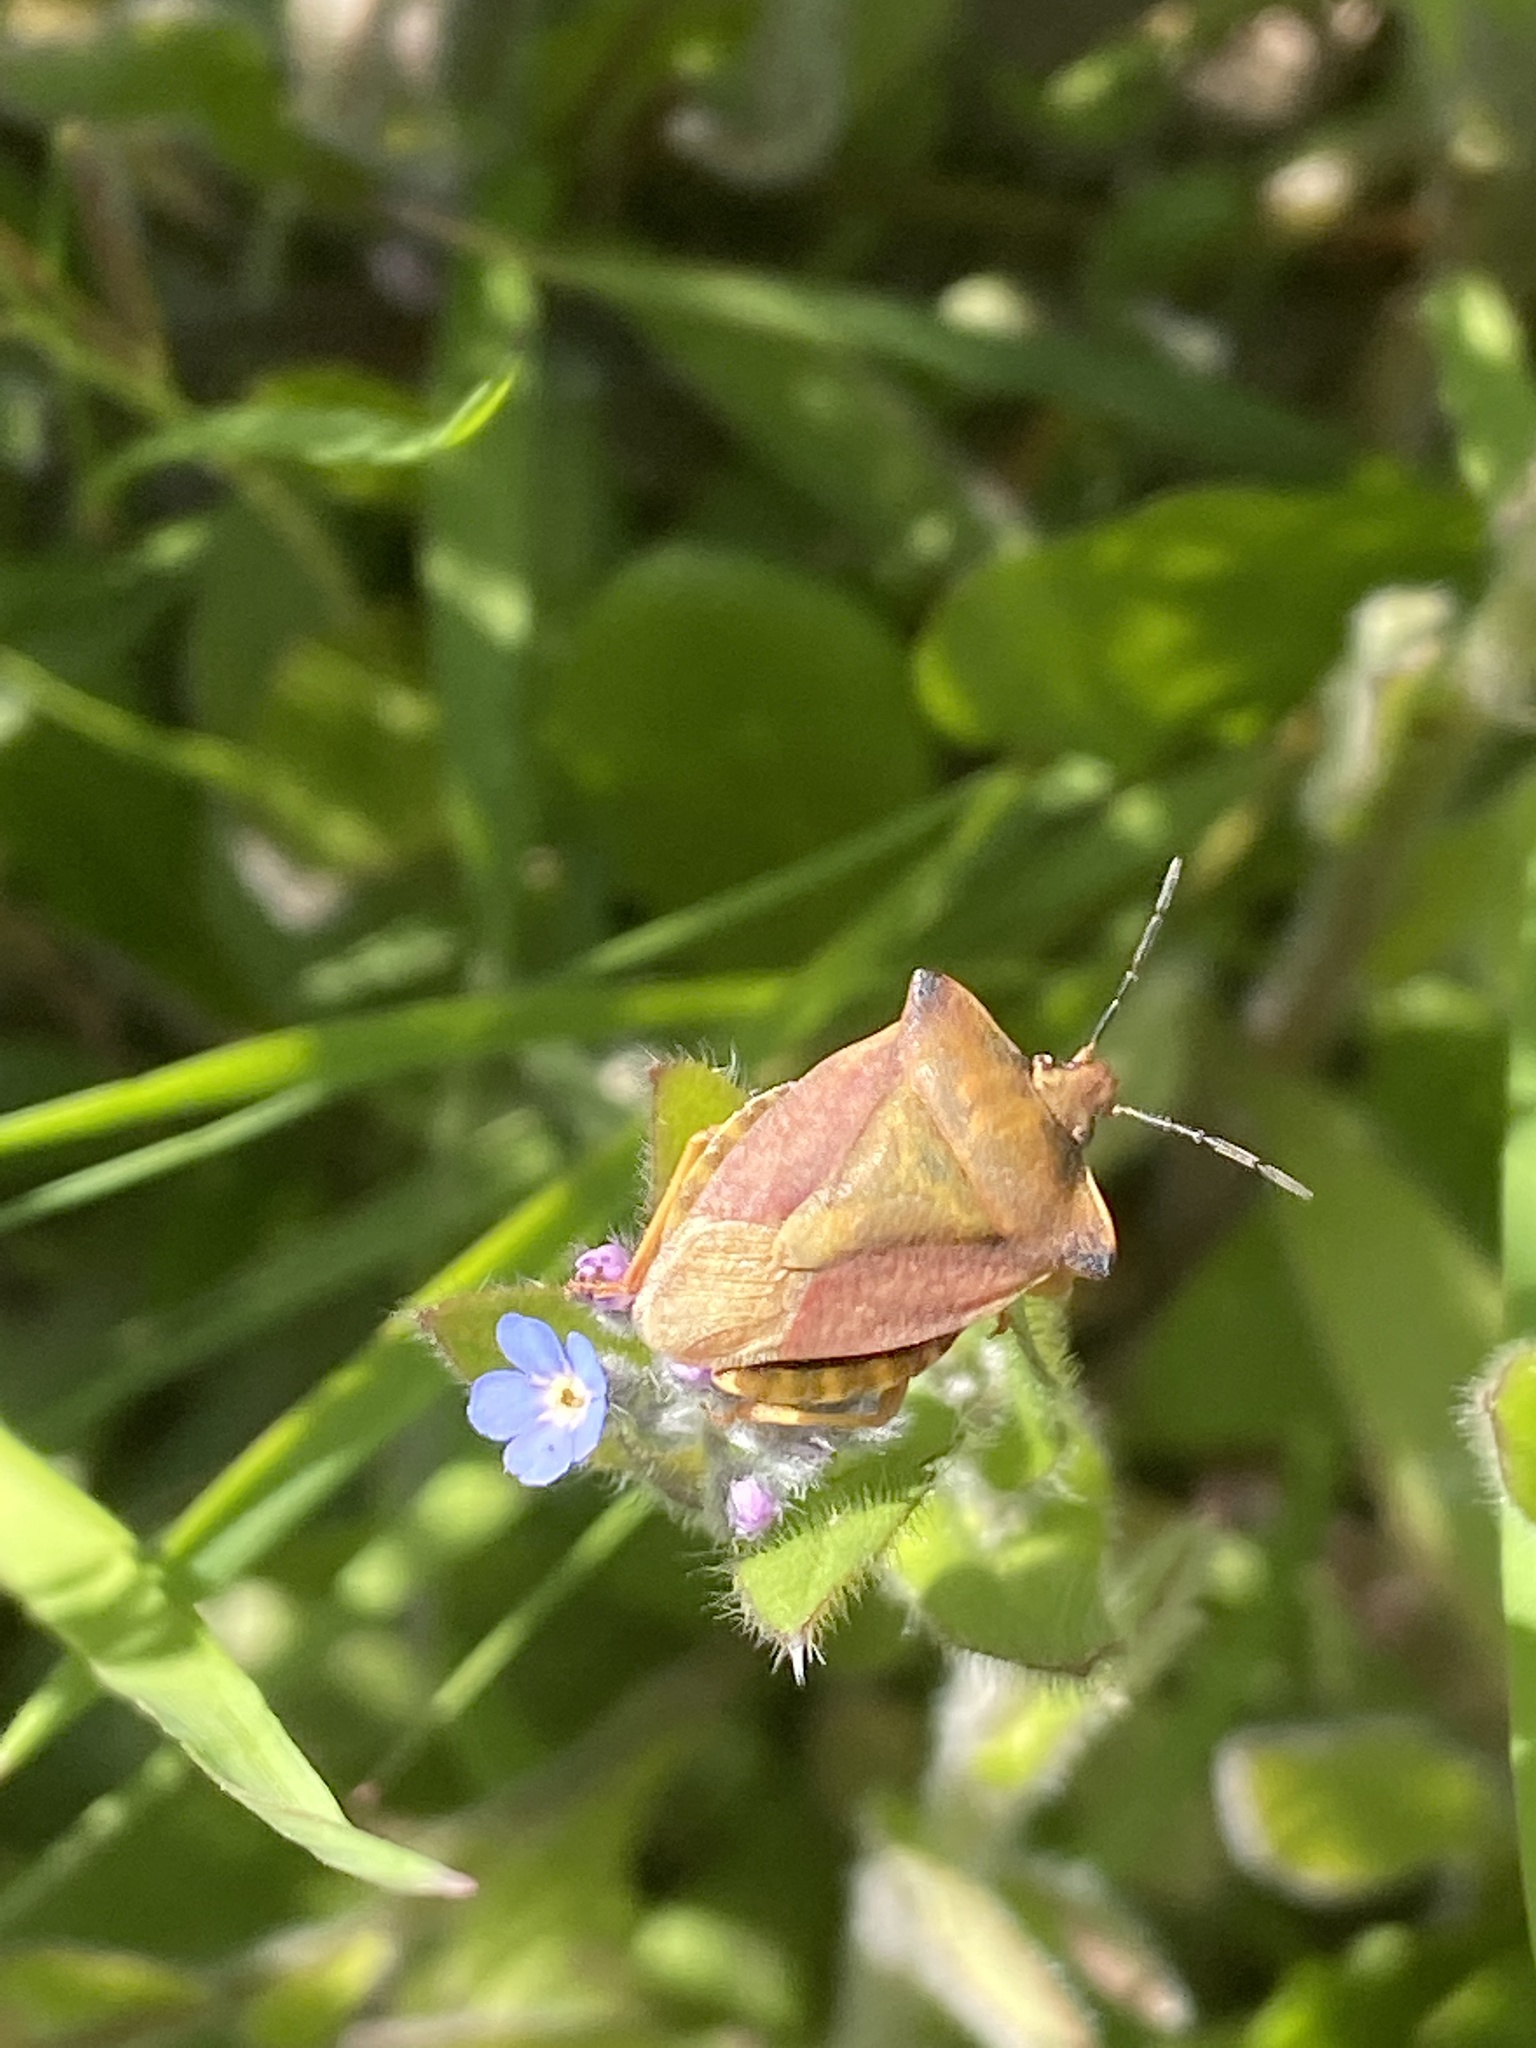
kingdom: Animalia
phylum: Arthropoda
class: Insecta
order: Hemiptera
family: Pentatomidae
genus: Carpocoris
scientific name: Carpocoris fuscispinus
